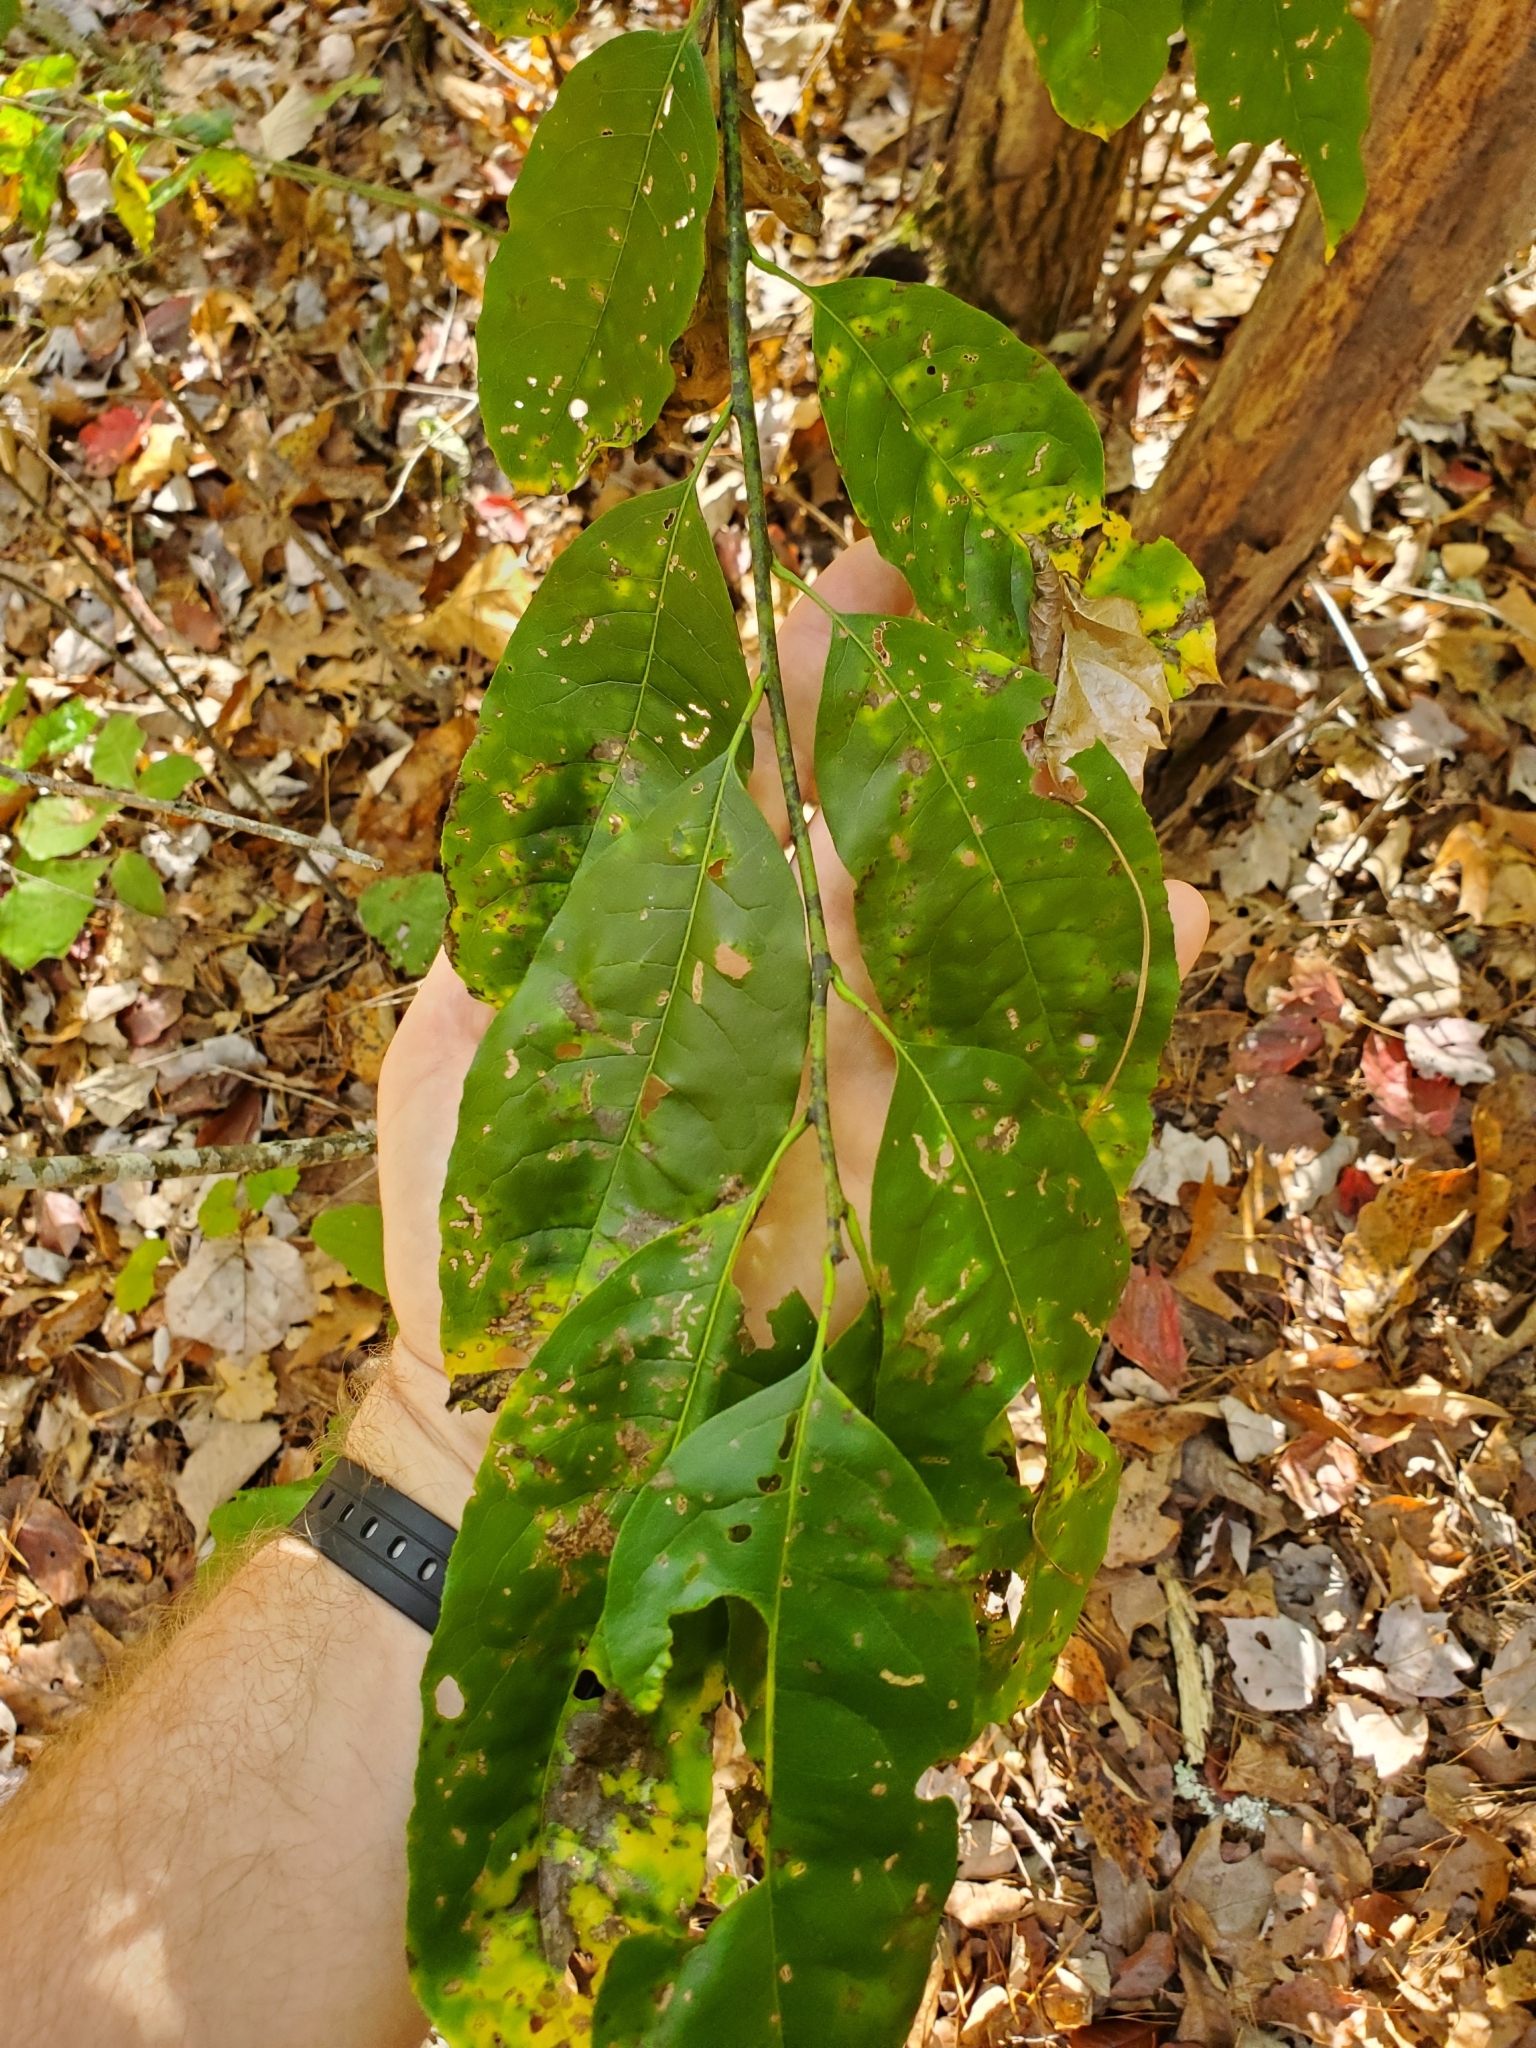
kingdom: Plantae
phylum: Tracheophyta
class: Magnoliopsida
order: Ericales
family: Ericaceae
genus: Oxydendrum
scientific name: Oxydendrum arboreum
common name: Sourwood
